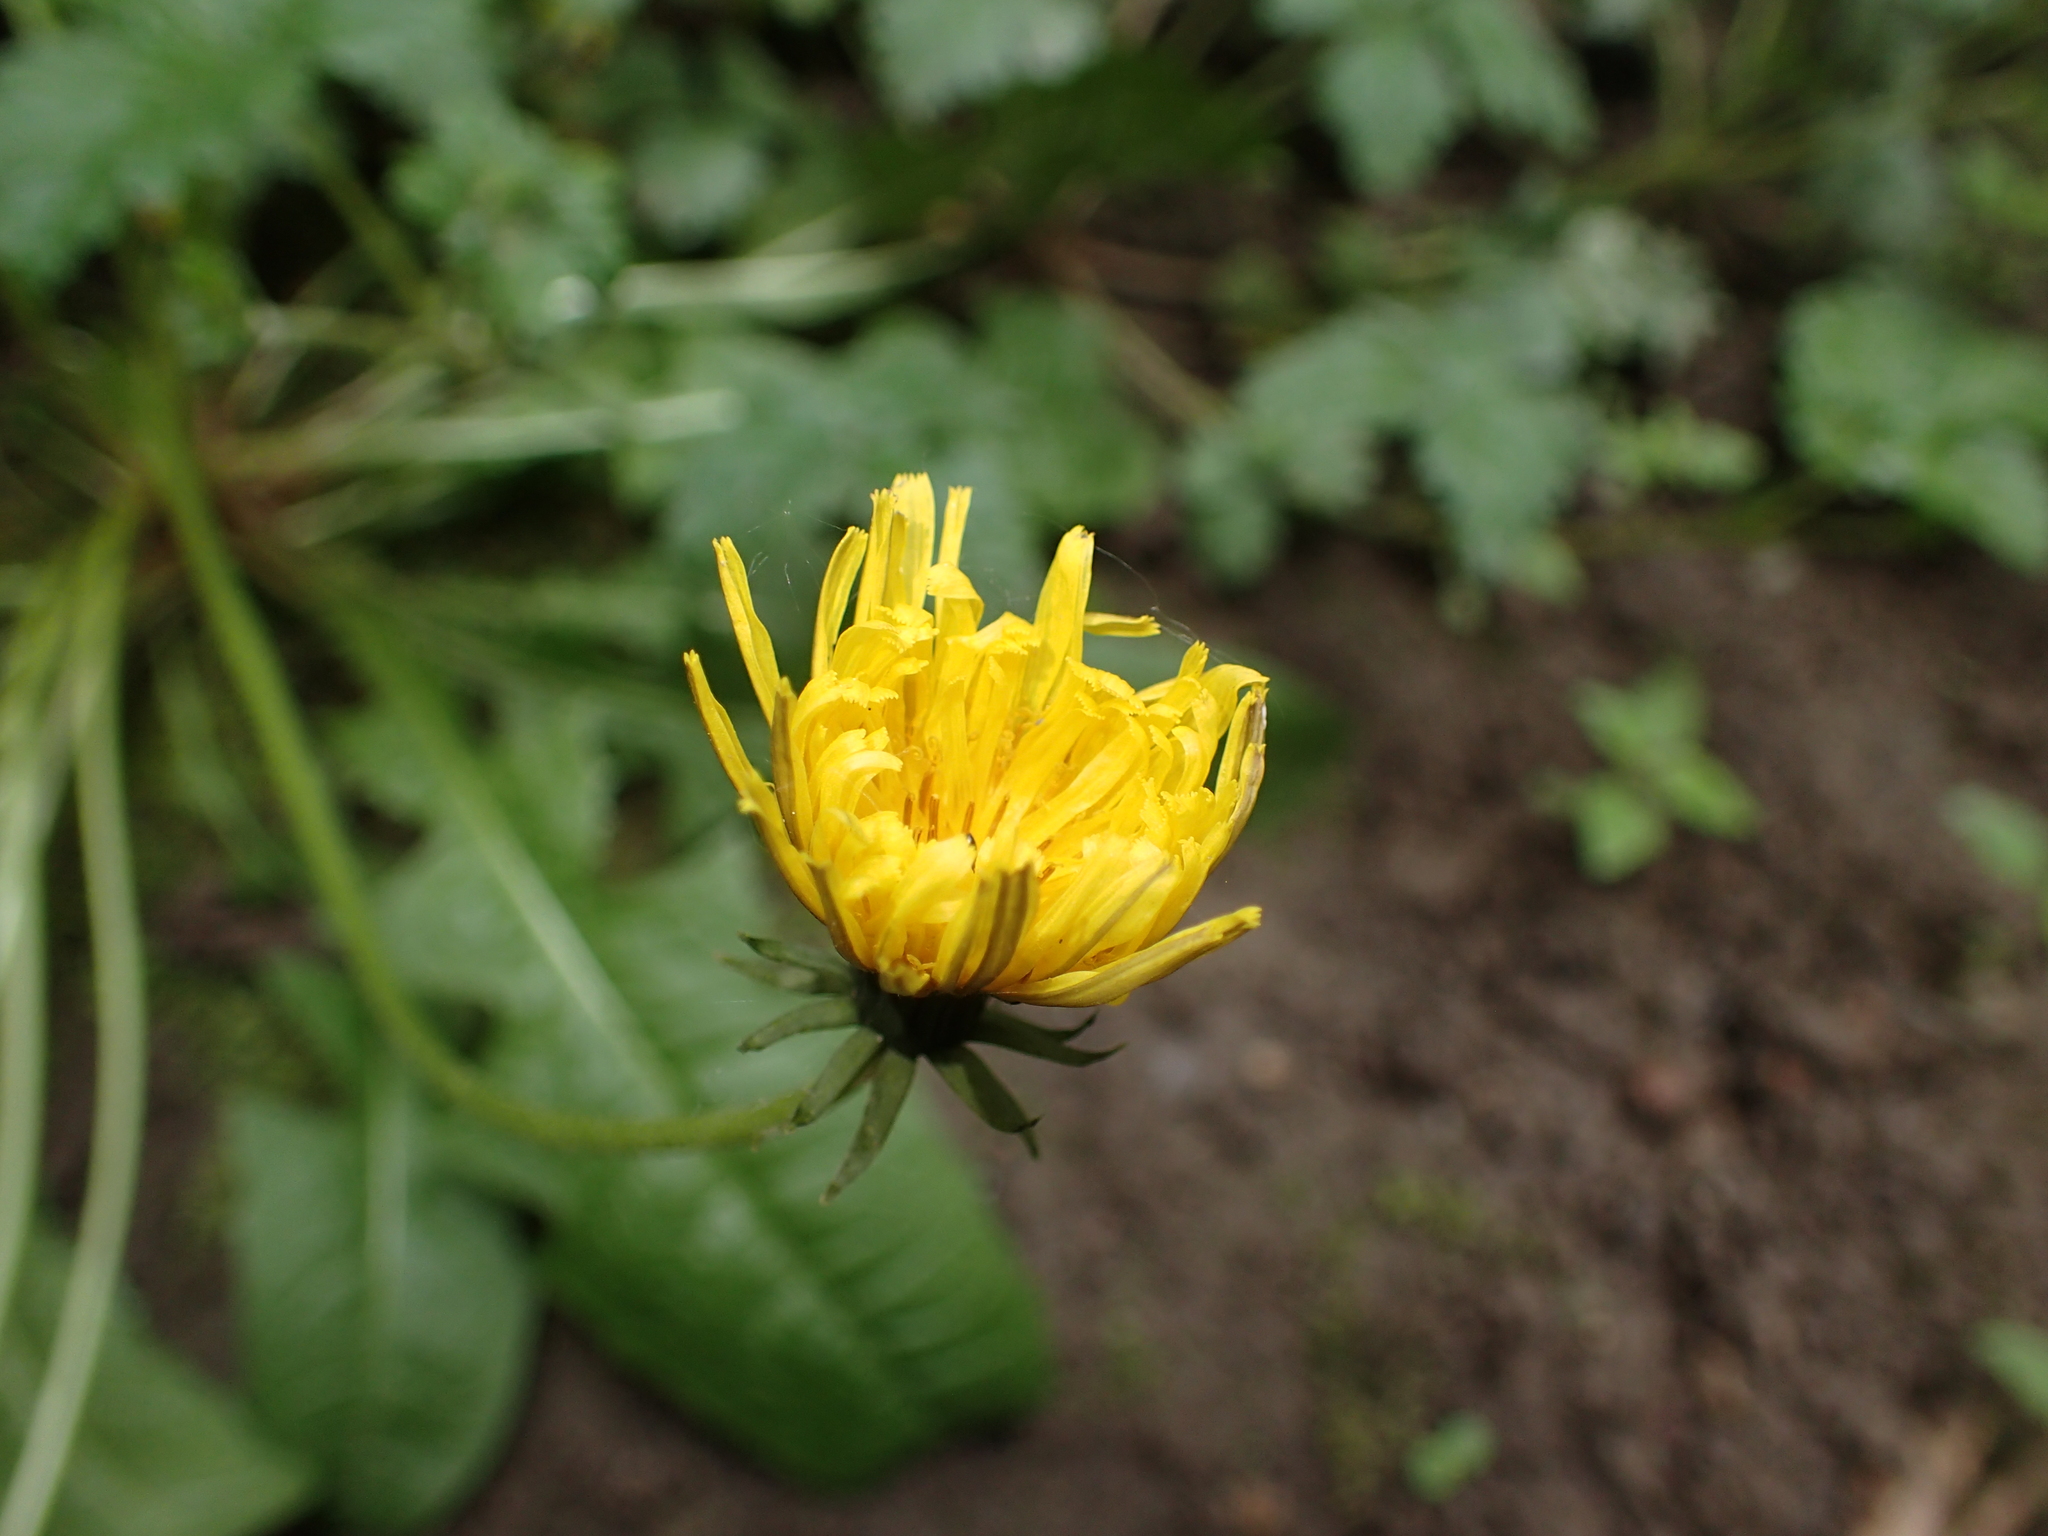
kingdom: Plantae
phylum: Tracheophyta
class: Magnoliopsida
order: Asterales
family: Asteraceae
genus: Taraxacum
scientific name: Taraxacum
